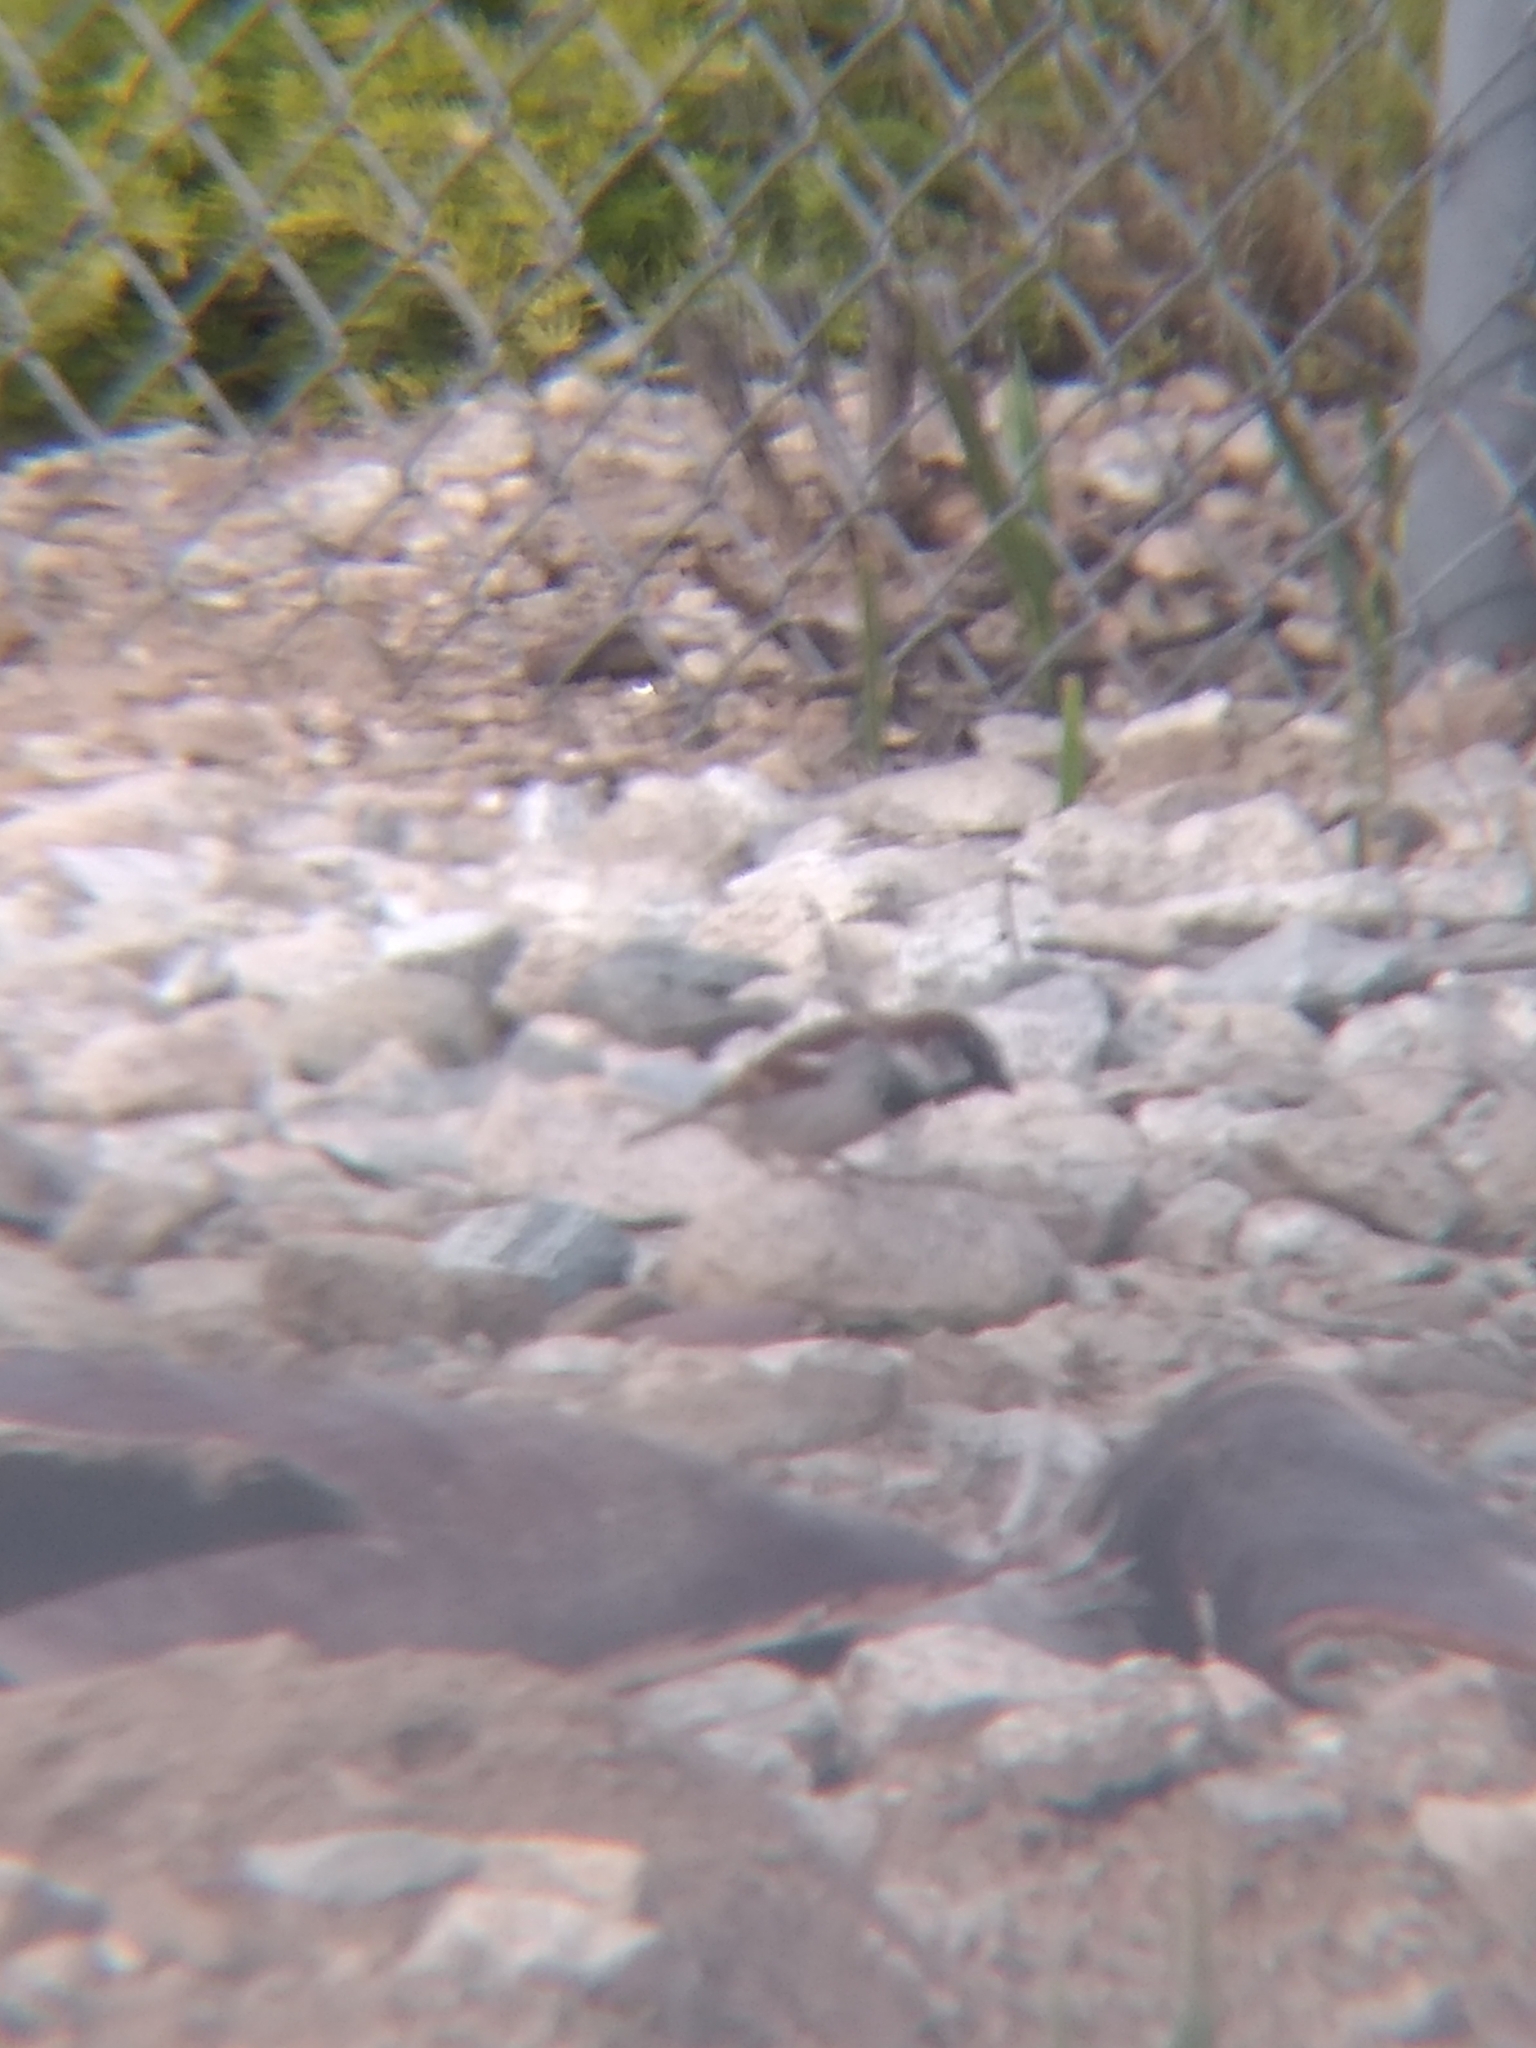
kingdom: Animalia
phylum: Chordata
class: Aves
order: Passeriformes
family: Passeridae
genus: Passer
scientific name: Passer domesticus
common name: House sparrow
